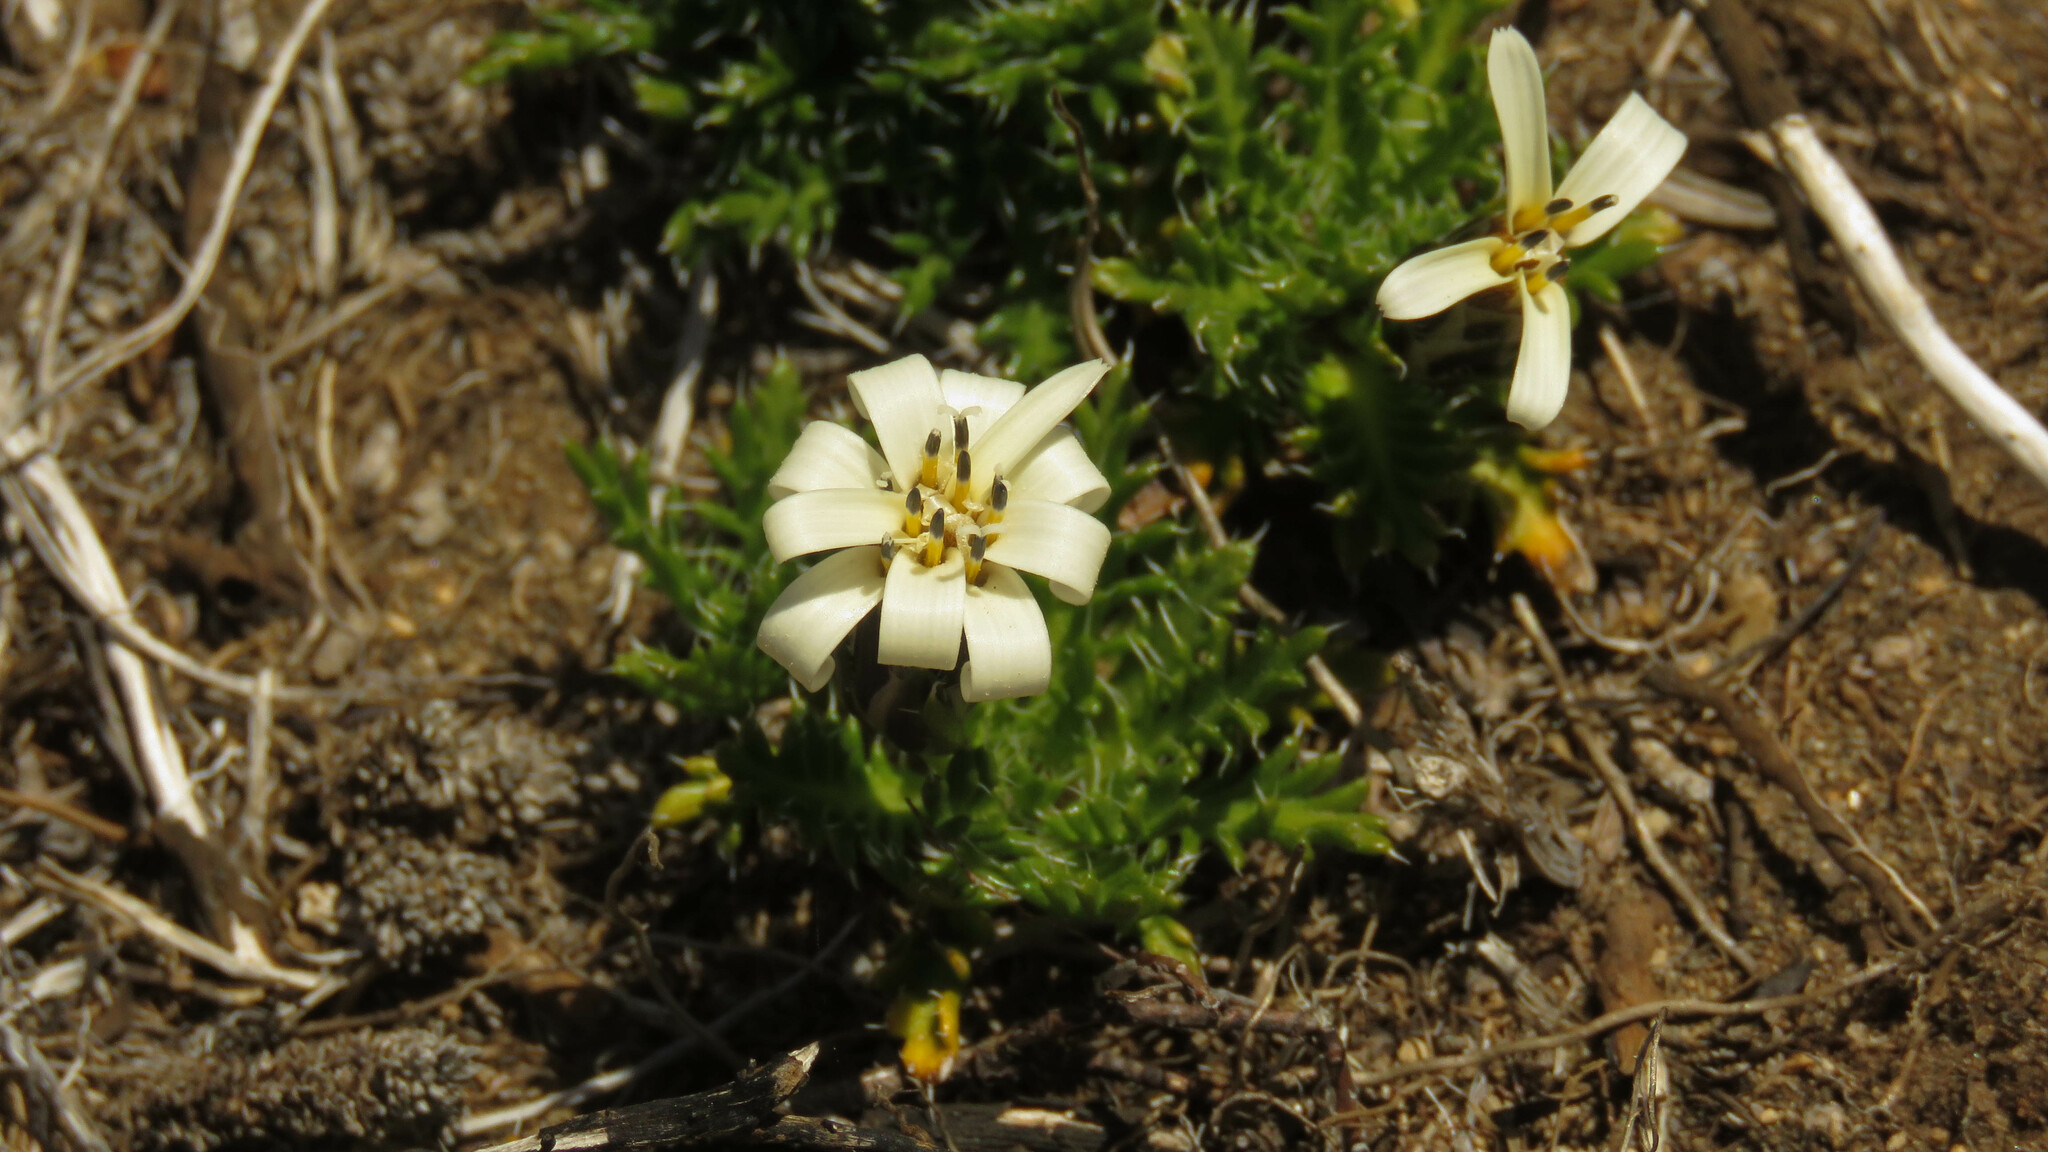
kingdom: Plantae
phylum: Tracheophyta
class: Magnoliopsida
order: Asterales
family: Asteraceae
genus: Perezia
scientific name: Perezia pilifera
